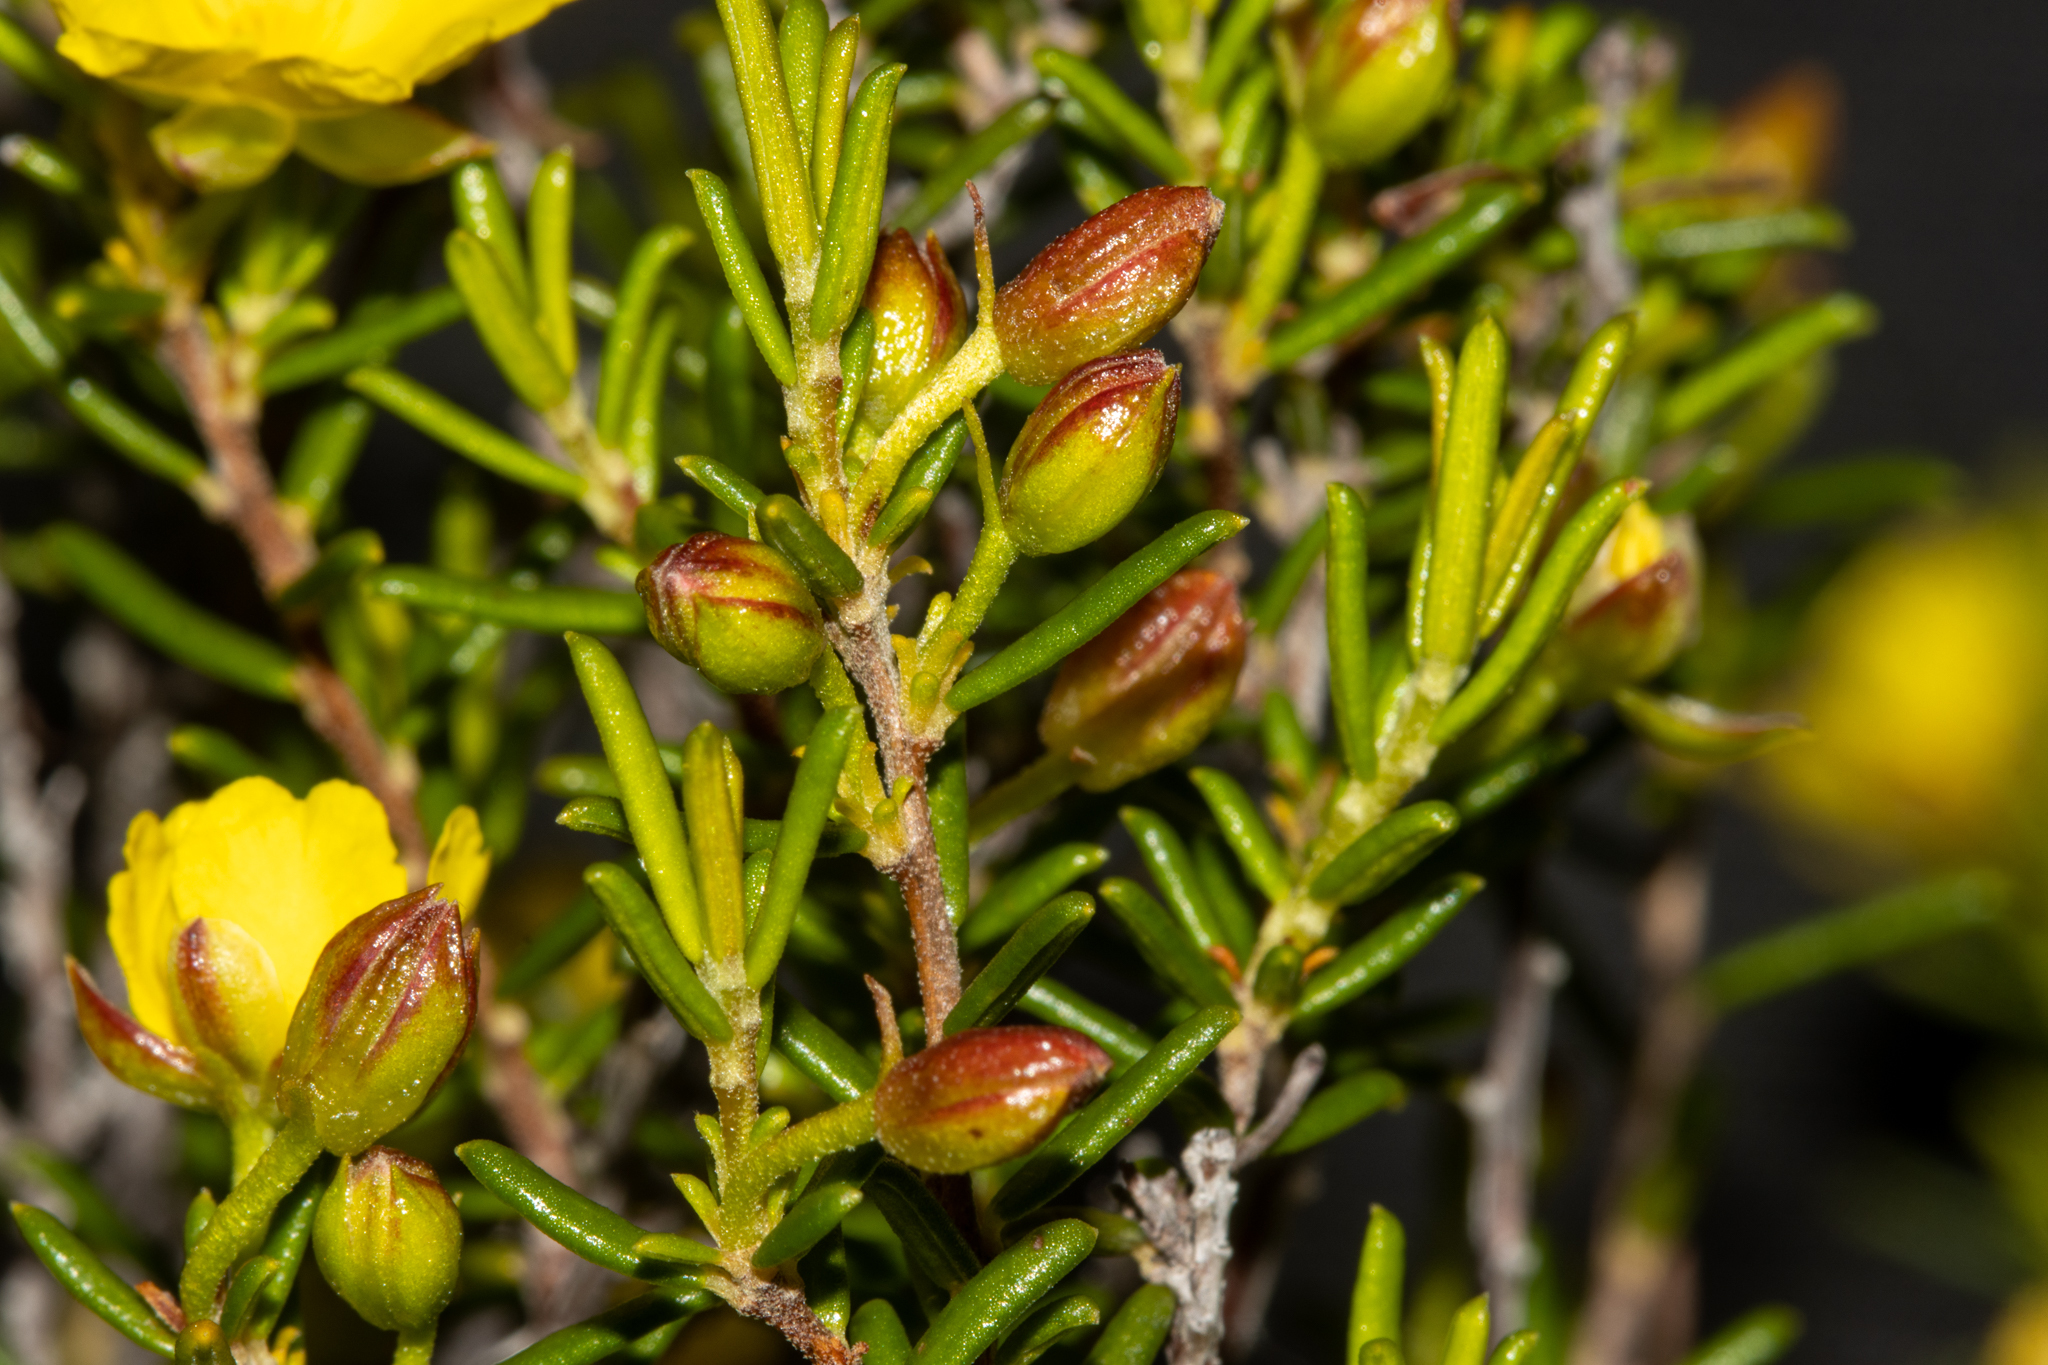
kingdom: Plantae
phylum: Tracheophyta
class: Magnoliopsida
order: Dilleniales
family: Dilleniaceae
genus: Hibbertia
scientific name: Hibbertia papillata
